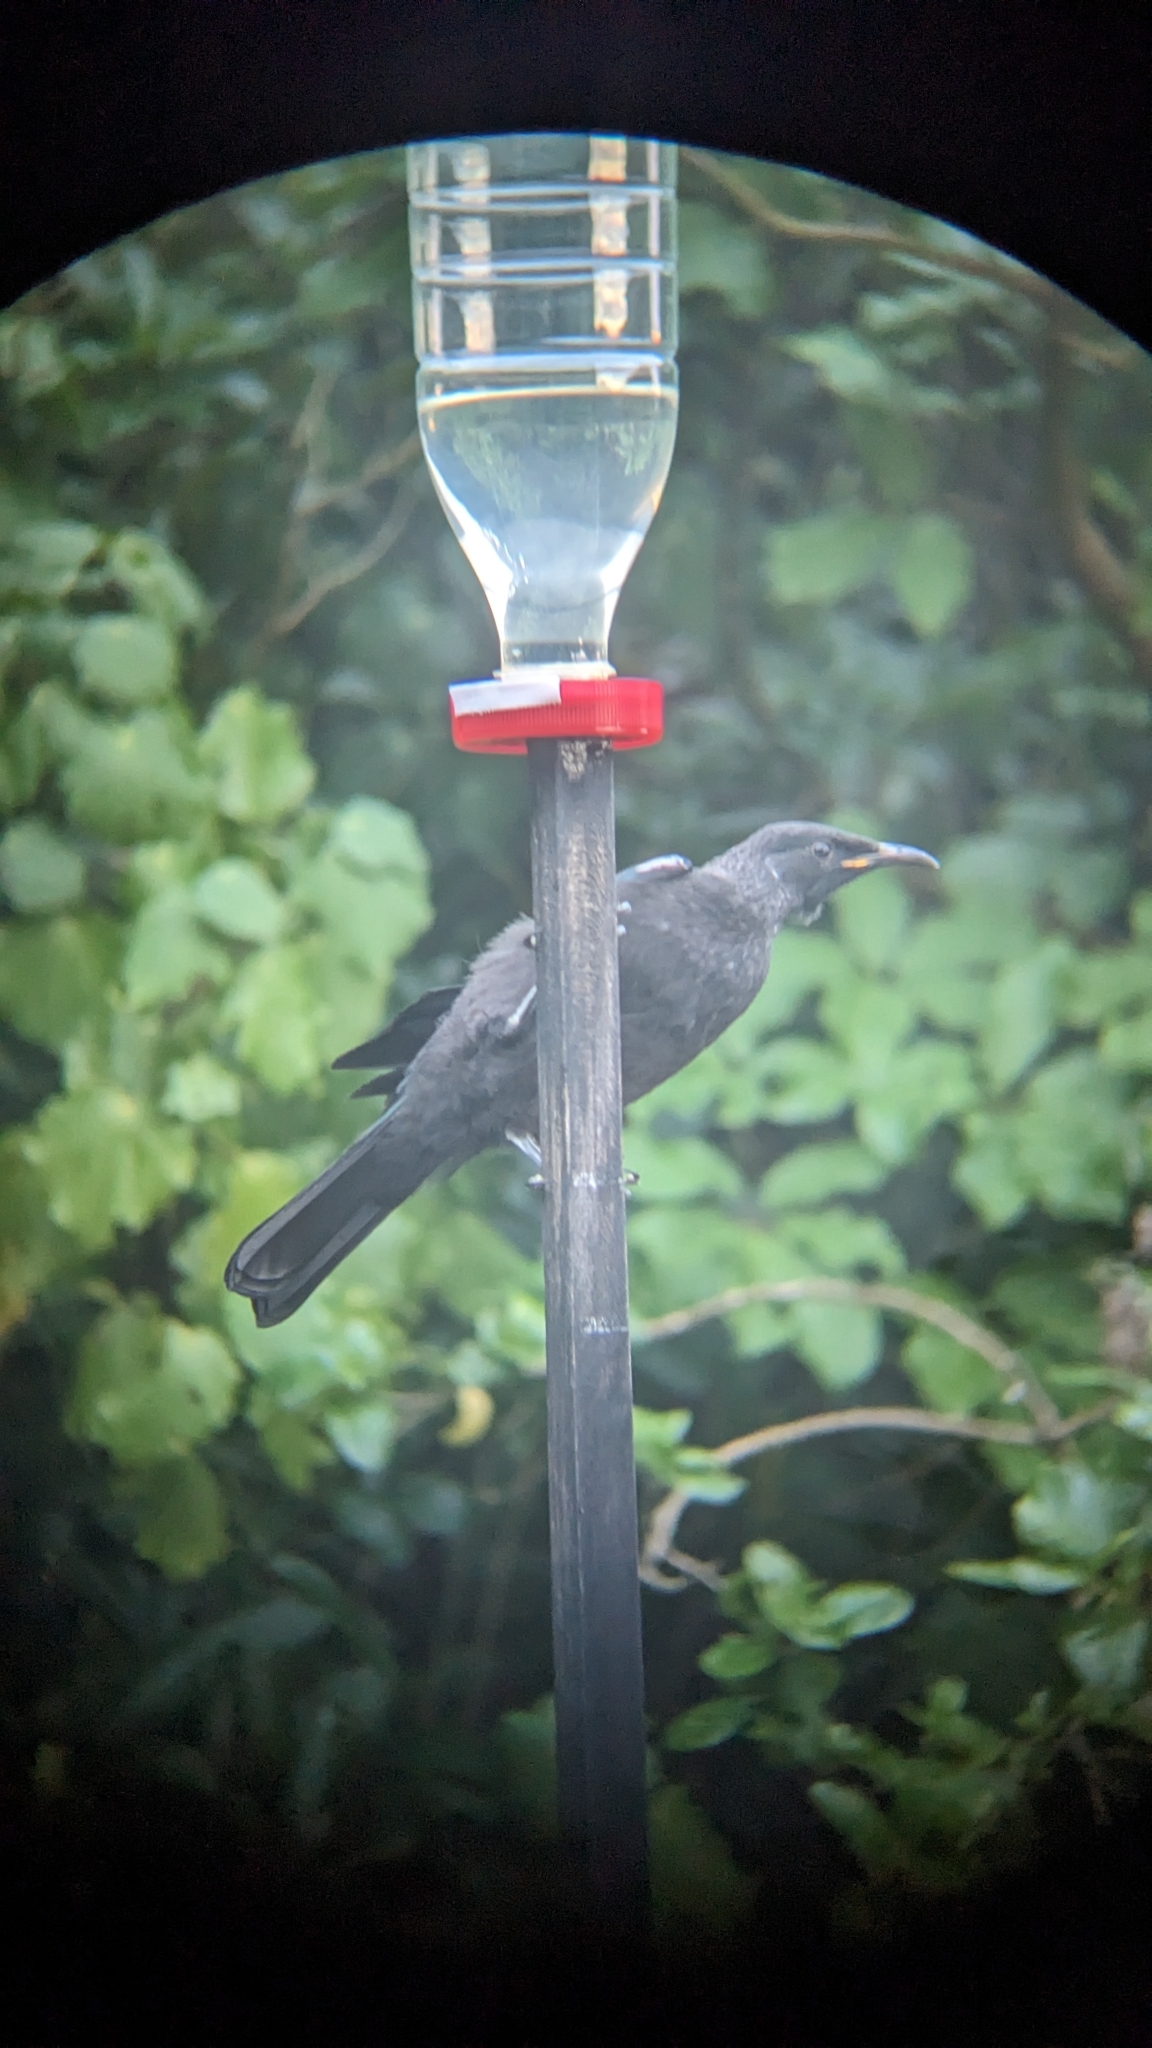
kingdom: Animalia
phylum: Chordata
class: Aves
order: Passeriformes
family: Meliphagidae
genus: Prosthemadera
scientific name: Prosthemadera novaeseelandiae
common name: Tui
